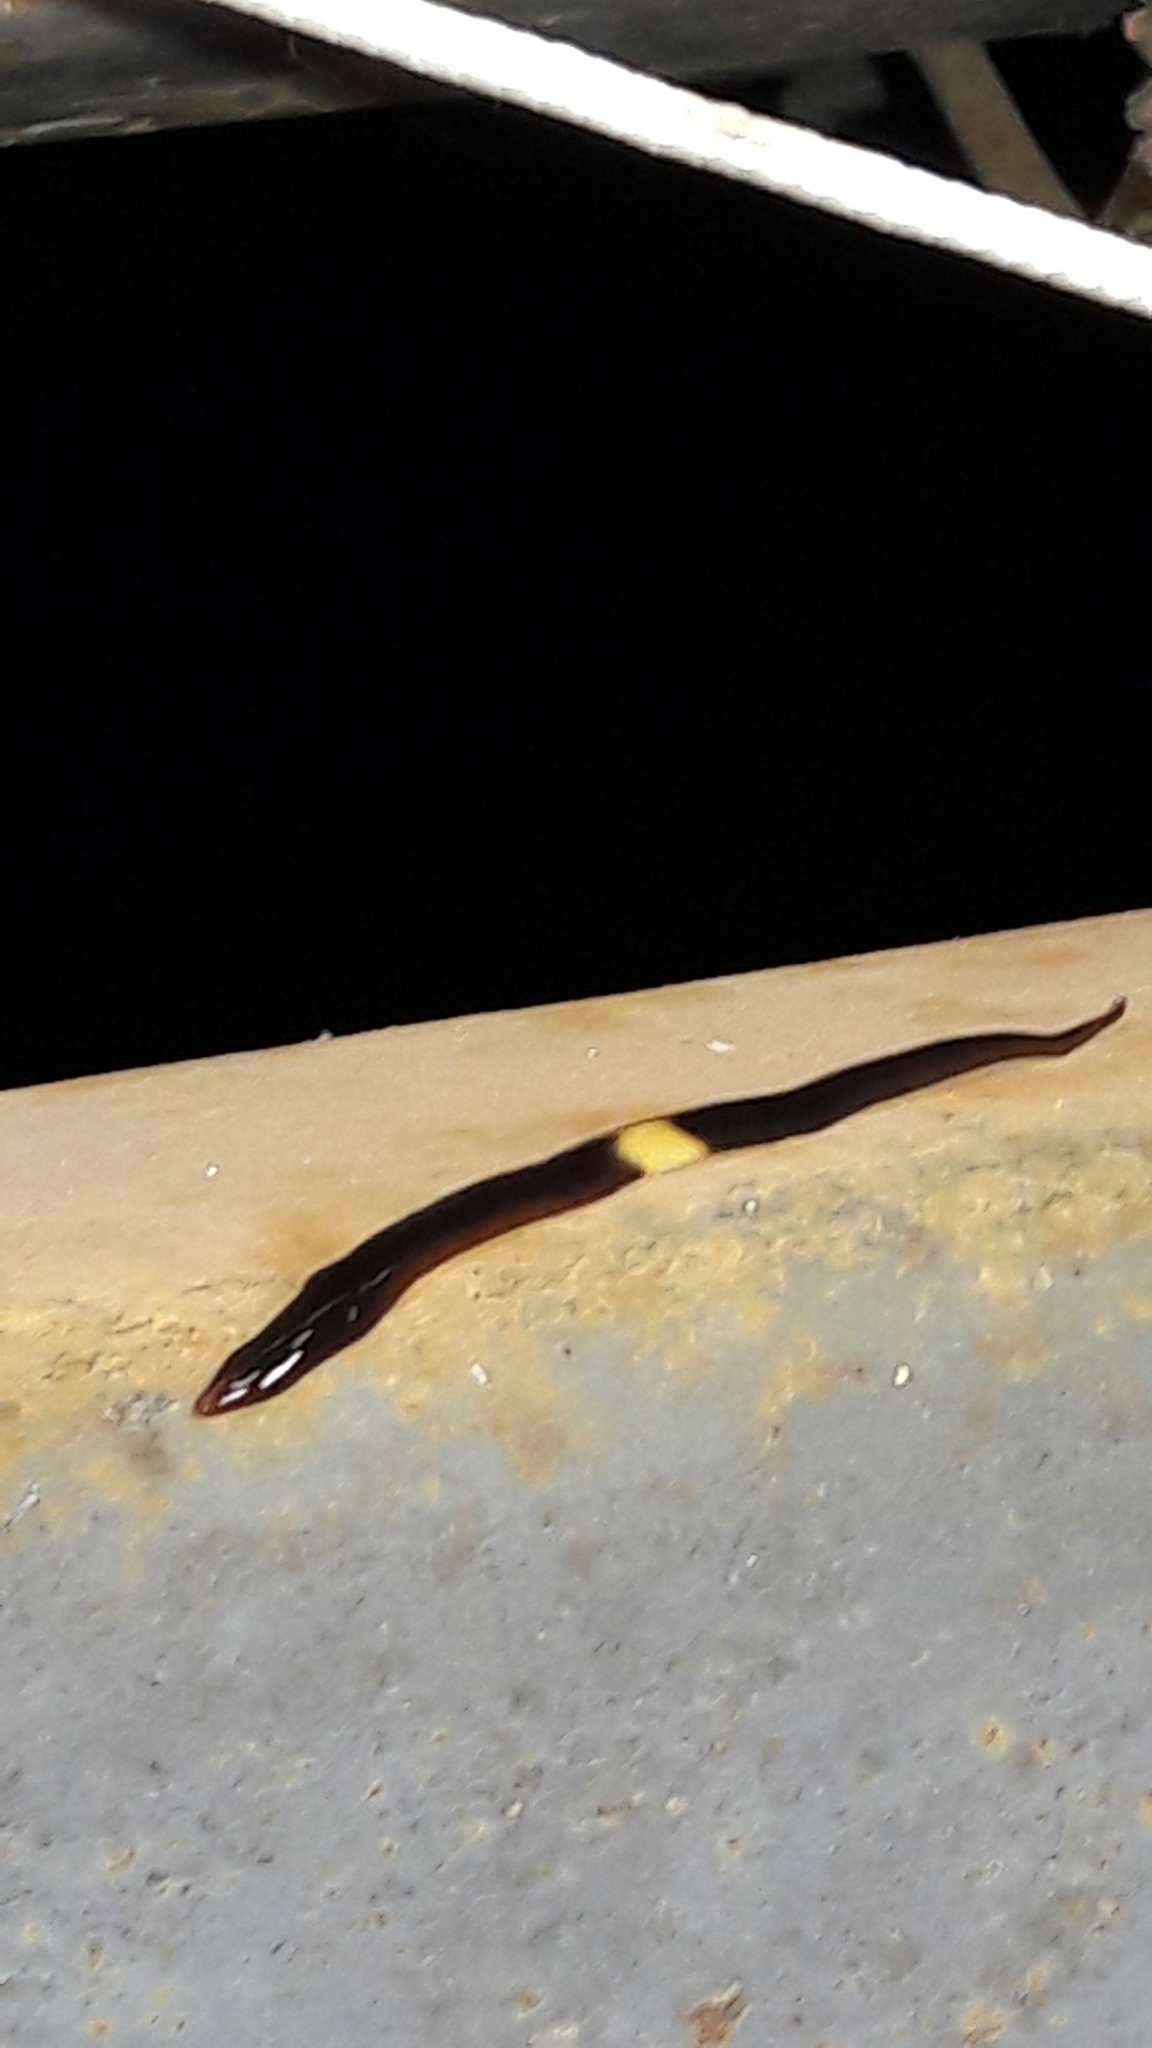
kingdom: Animalia
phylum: Platyhelminthes
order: Tricladida
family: Geoplanidae
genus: Paraba
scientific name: Paraba pankaru
